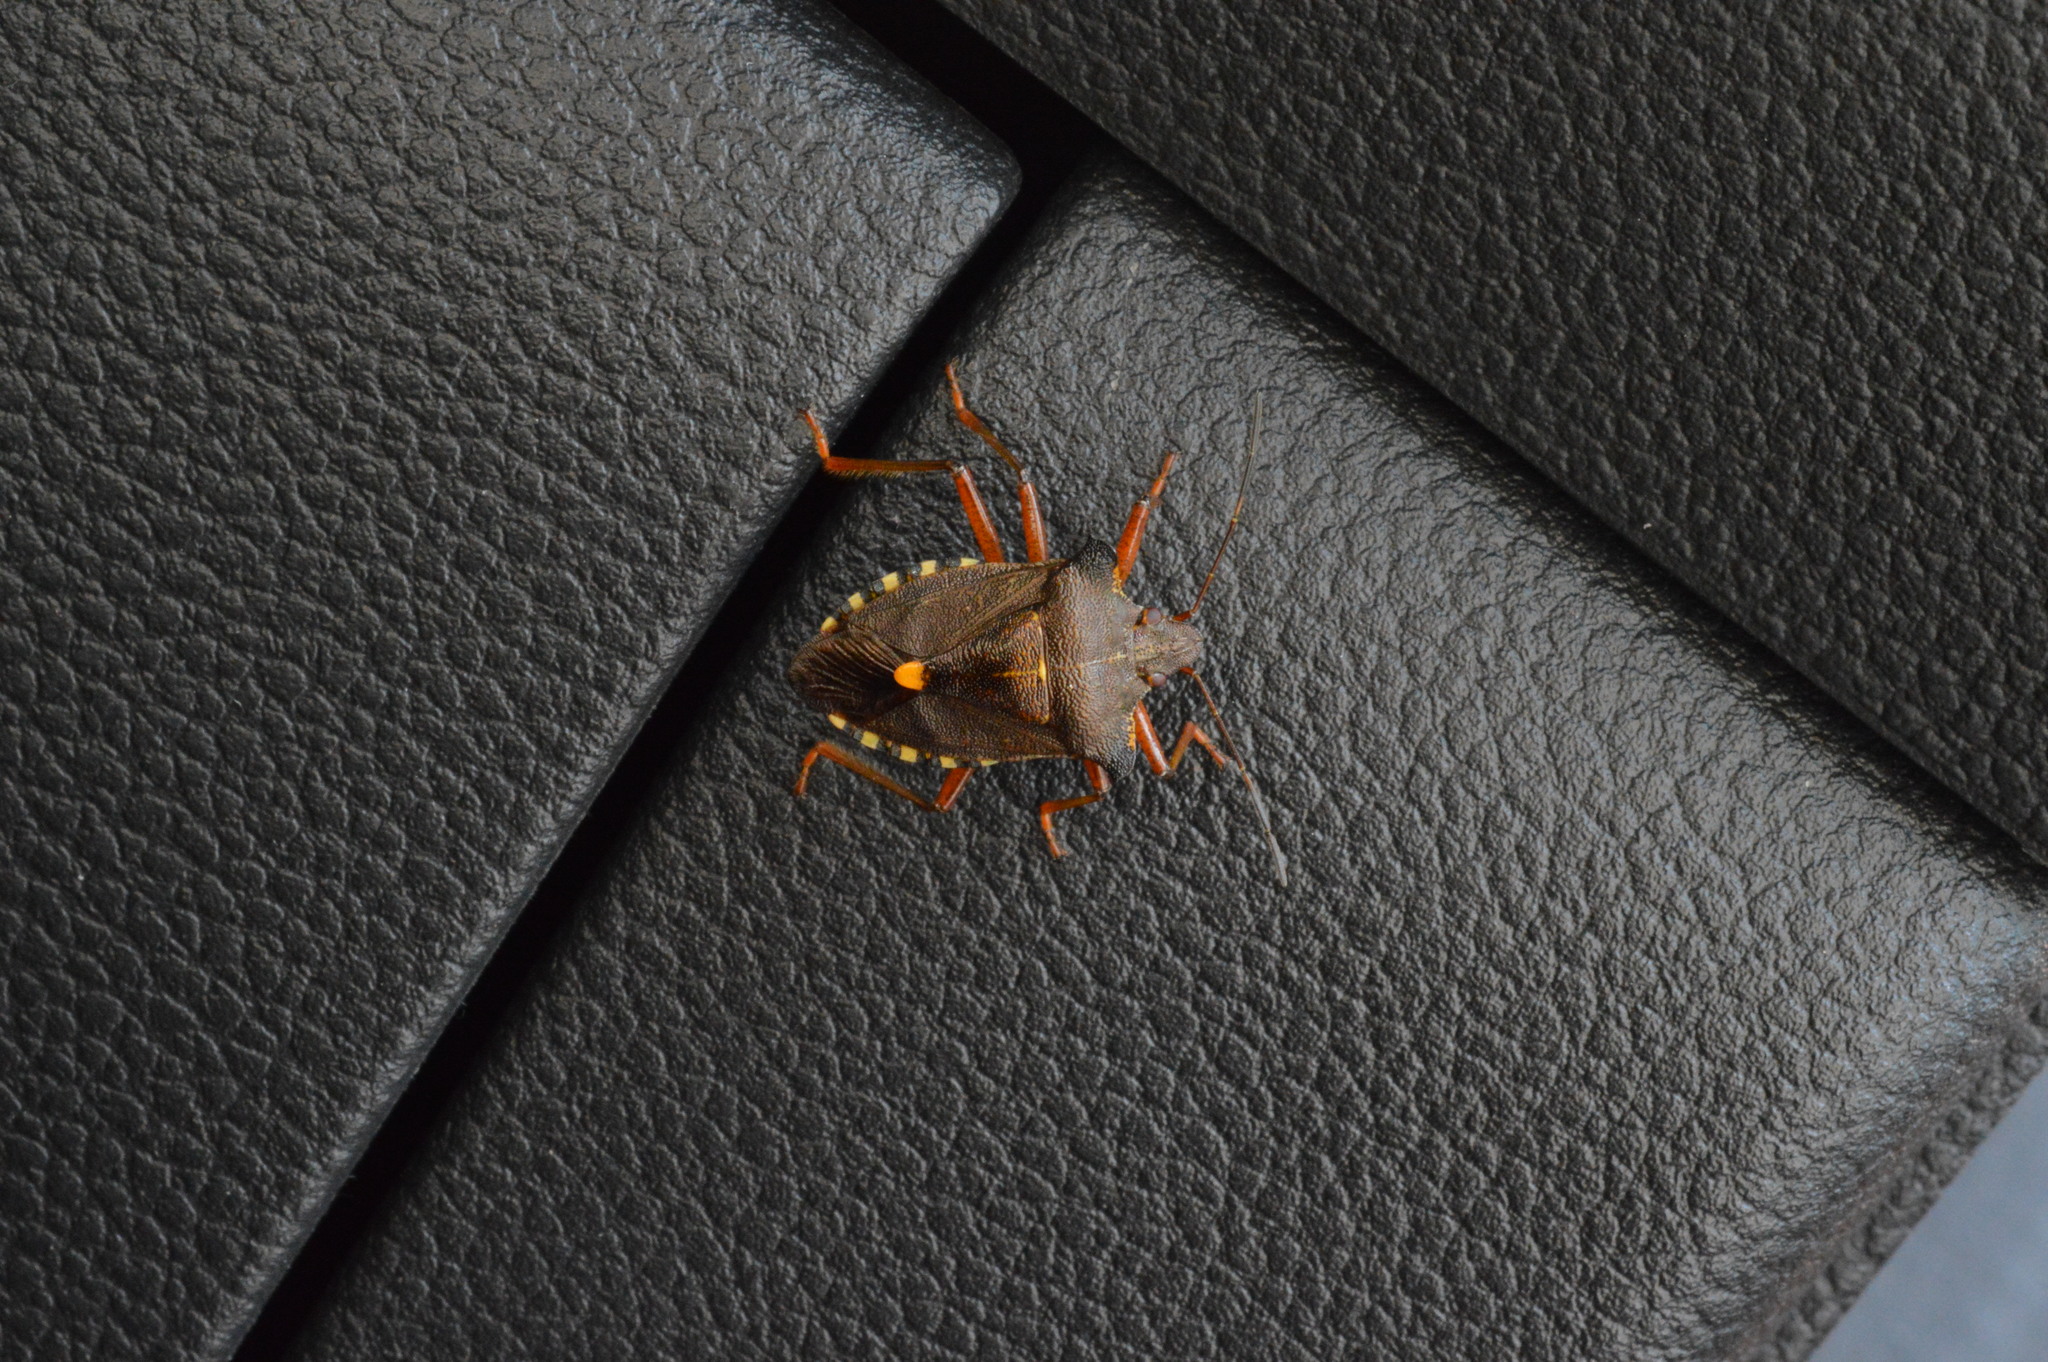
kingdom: Animalia
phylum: Arthropoda
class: Insecta
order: Hemiptera
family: Pentatomidae
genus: Pentatoma
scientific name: Pentatoma rufipes
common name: Forest bug
